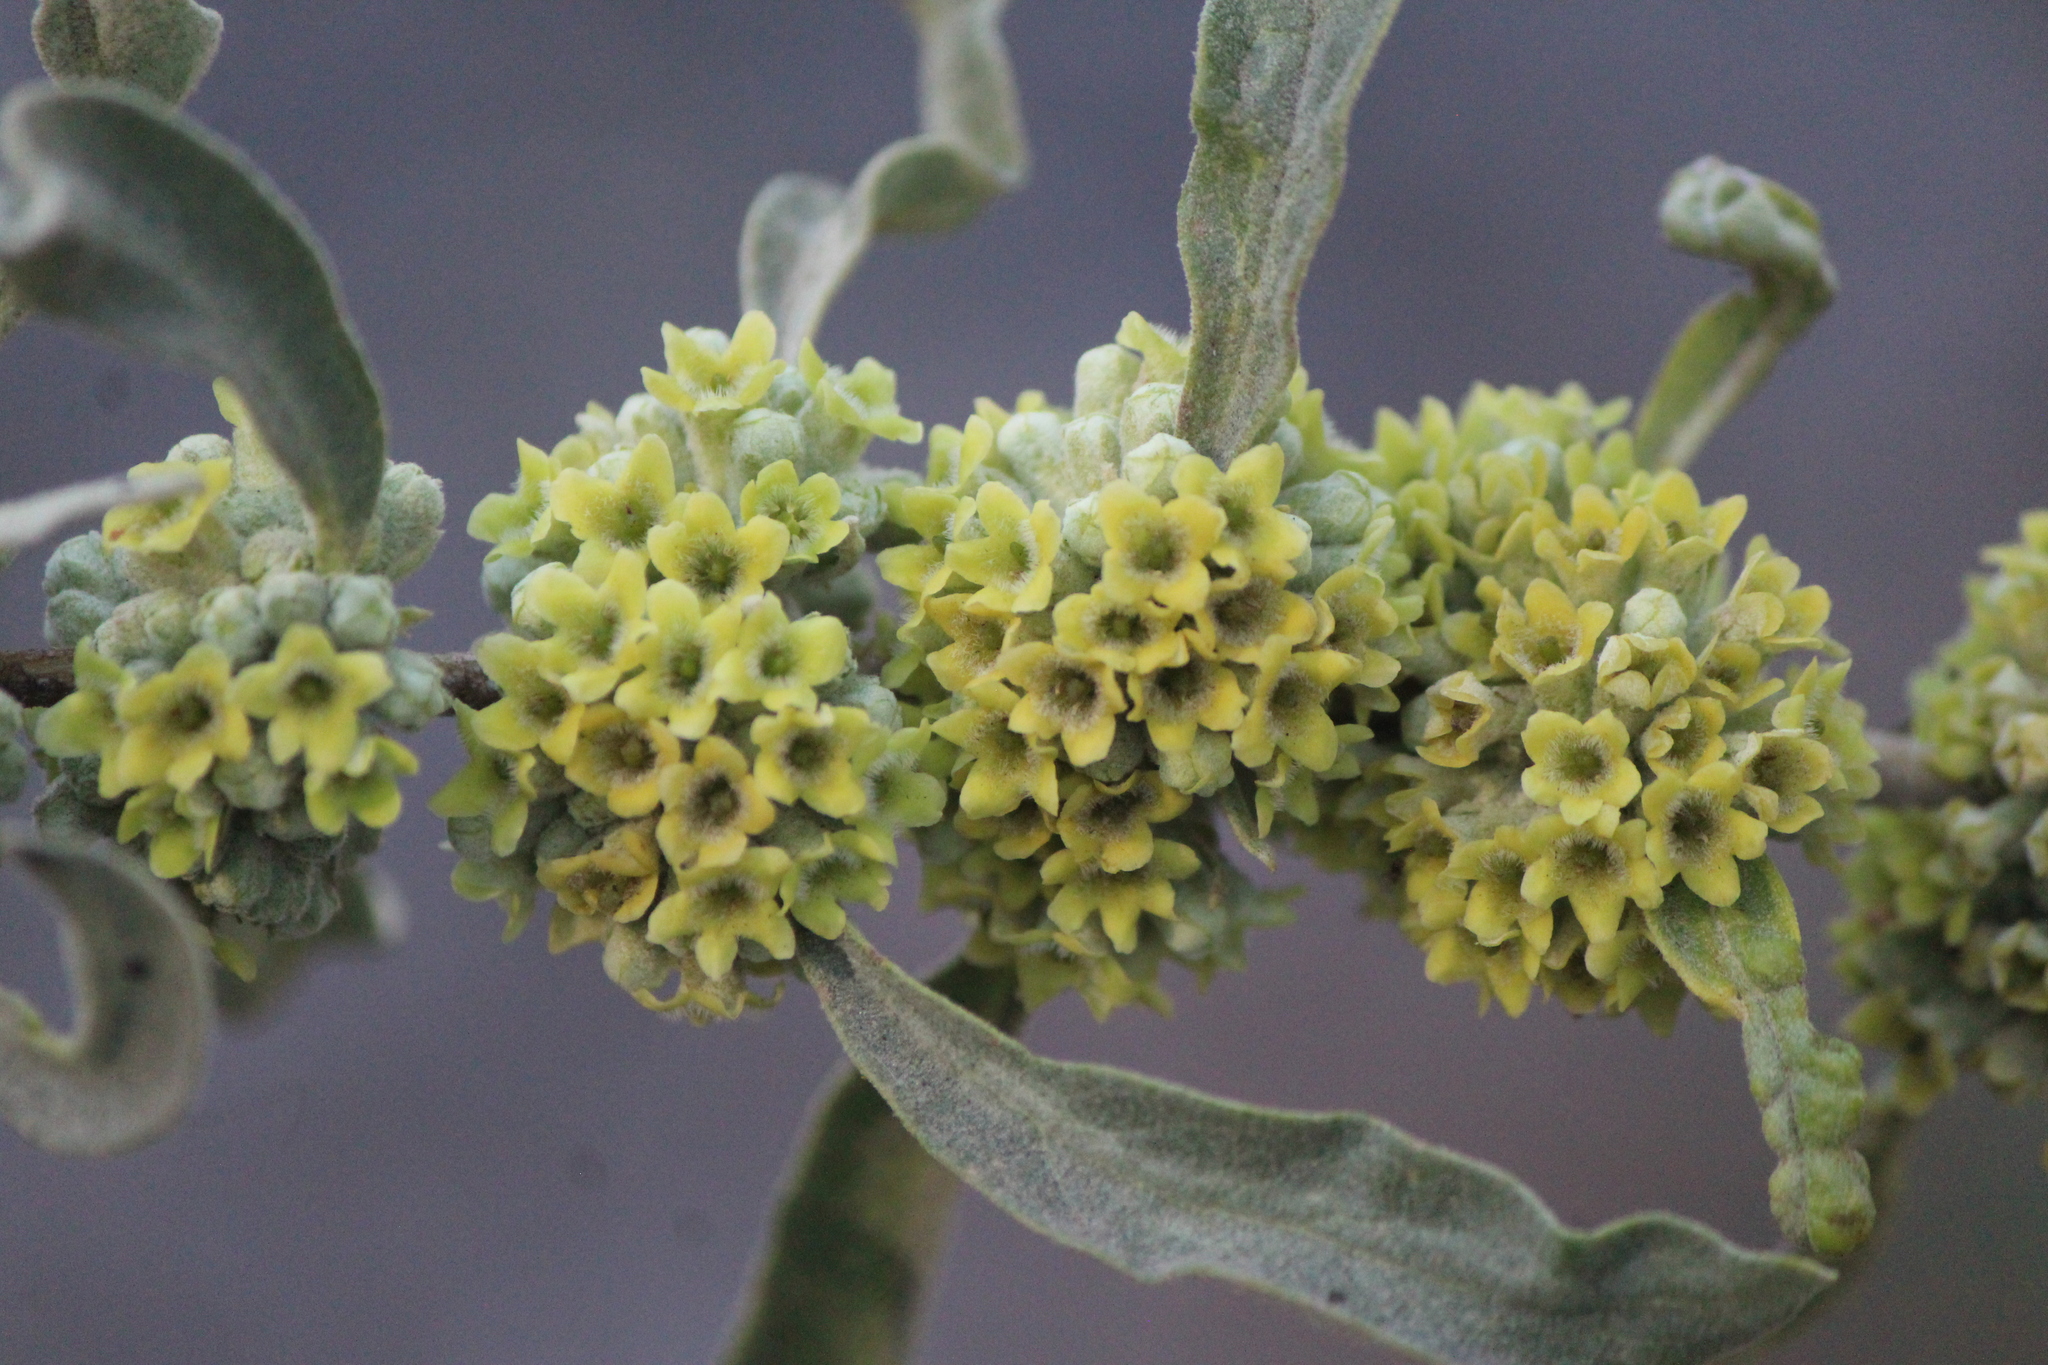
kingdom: Plantae
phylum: Tracheophyta
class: Magnoliopsida
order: Lamiales
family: Scrophulariaceae
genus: Buddleja
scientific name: Buddleja sessiliflora
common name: Rio grande butterfly-bush
